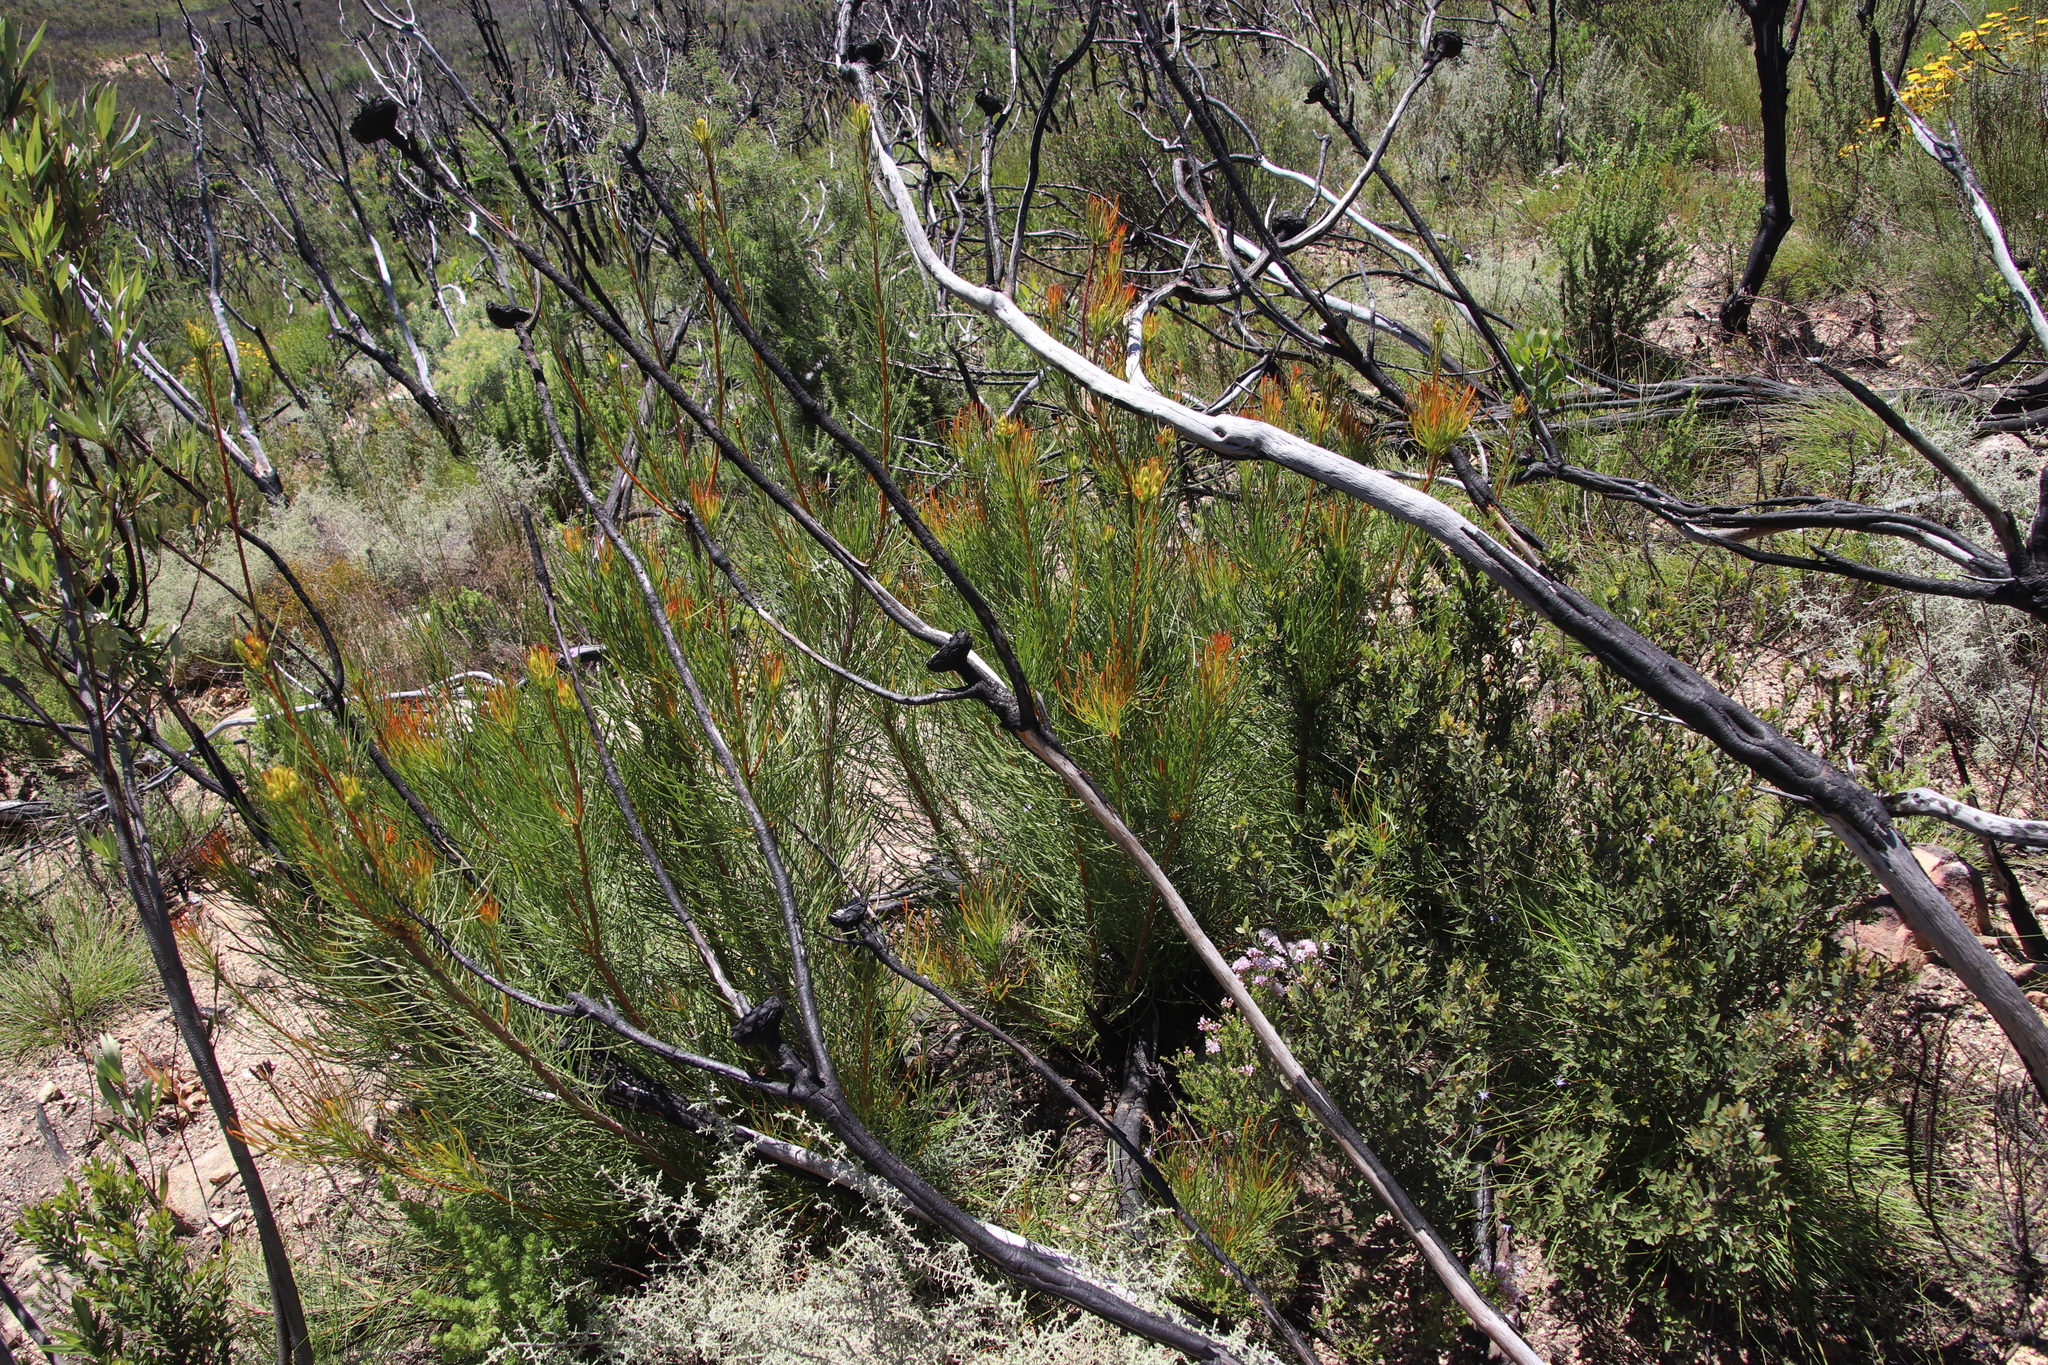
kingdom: Plantae
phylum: Tracheophyta
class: Magnoliopsida
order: Proteales
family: Proteaceae
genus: Aulax
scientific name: Aulax pallasia
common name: Needle-leaf featherbush
